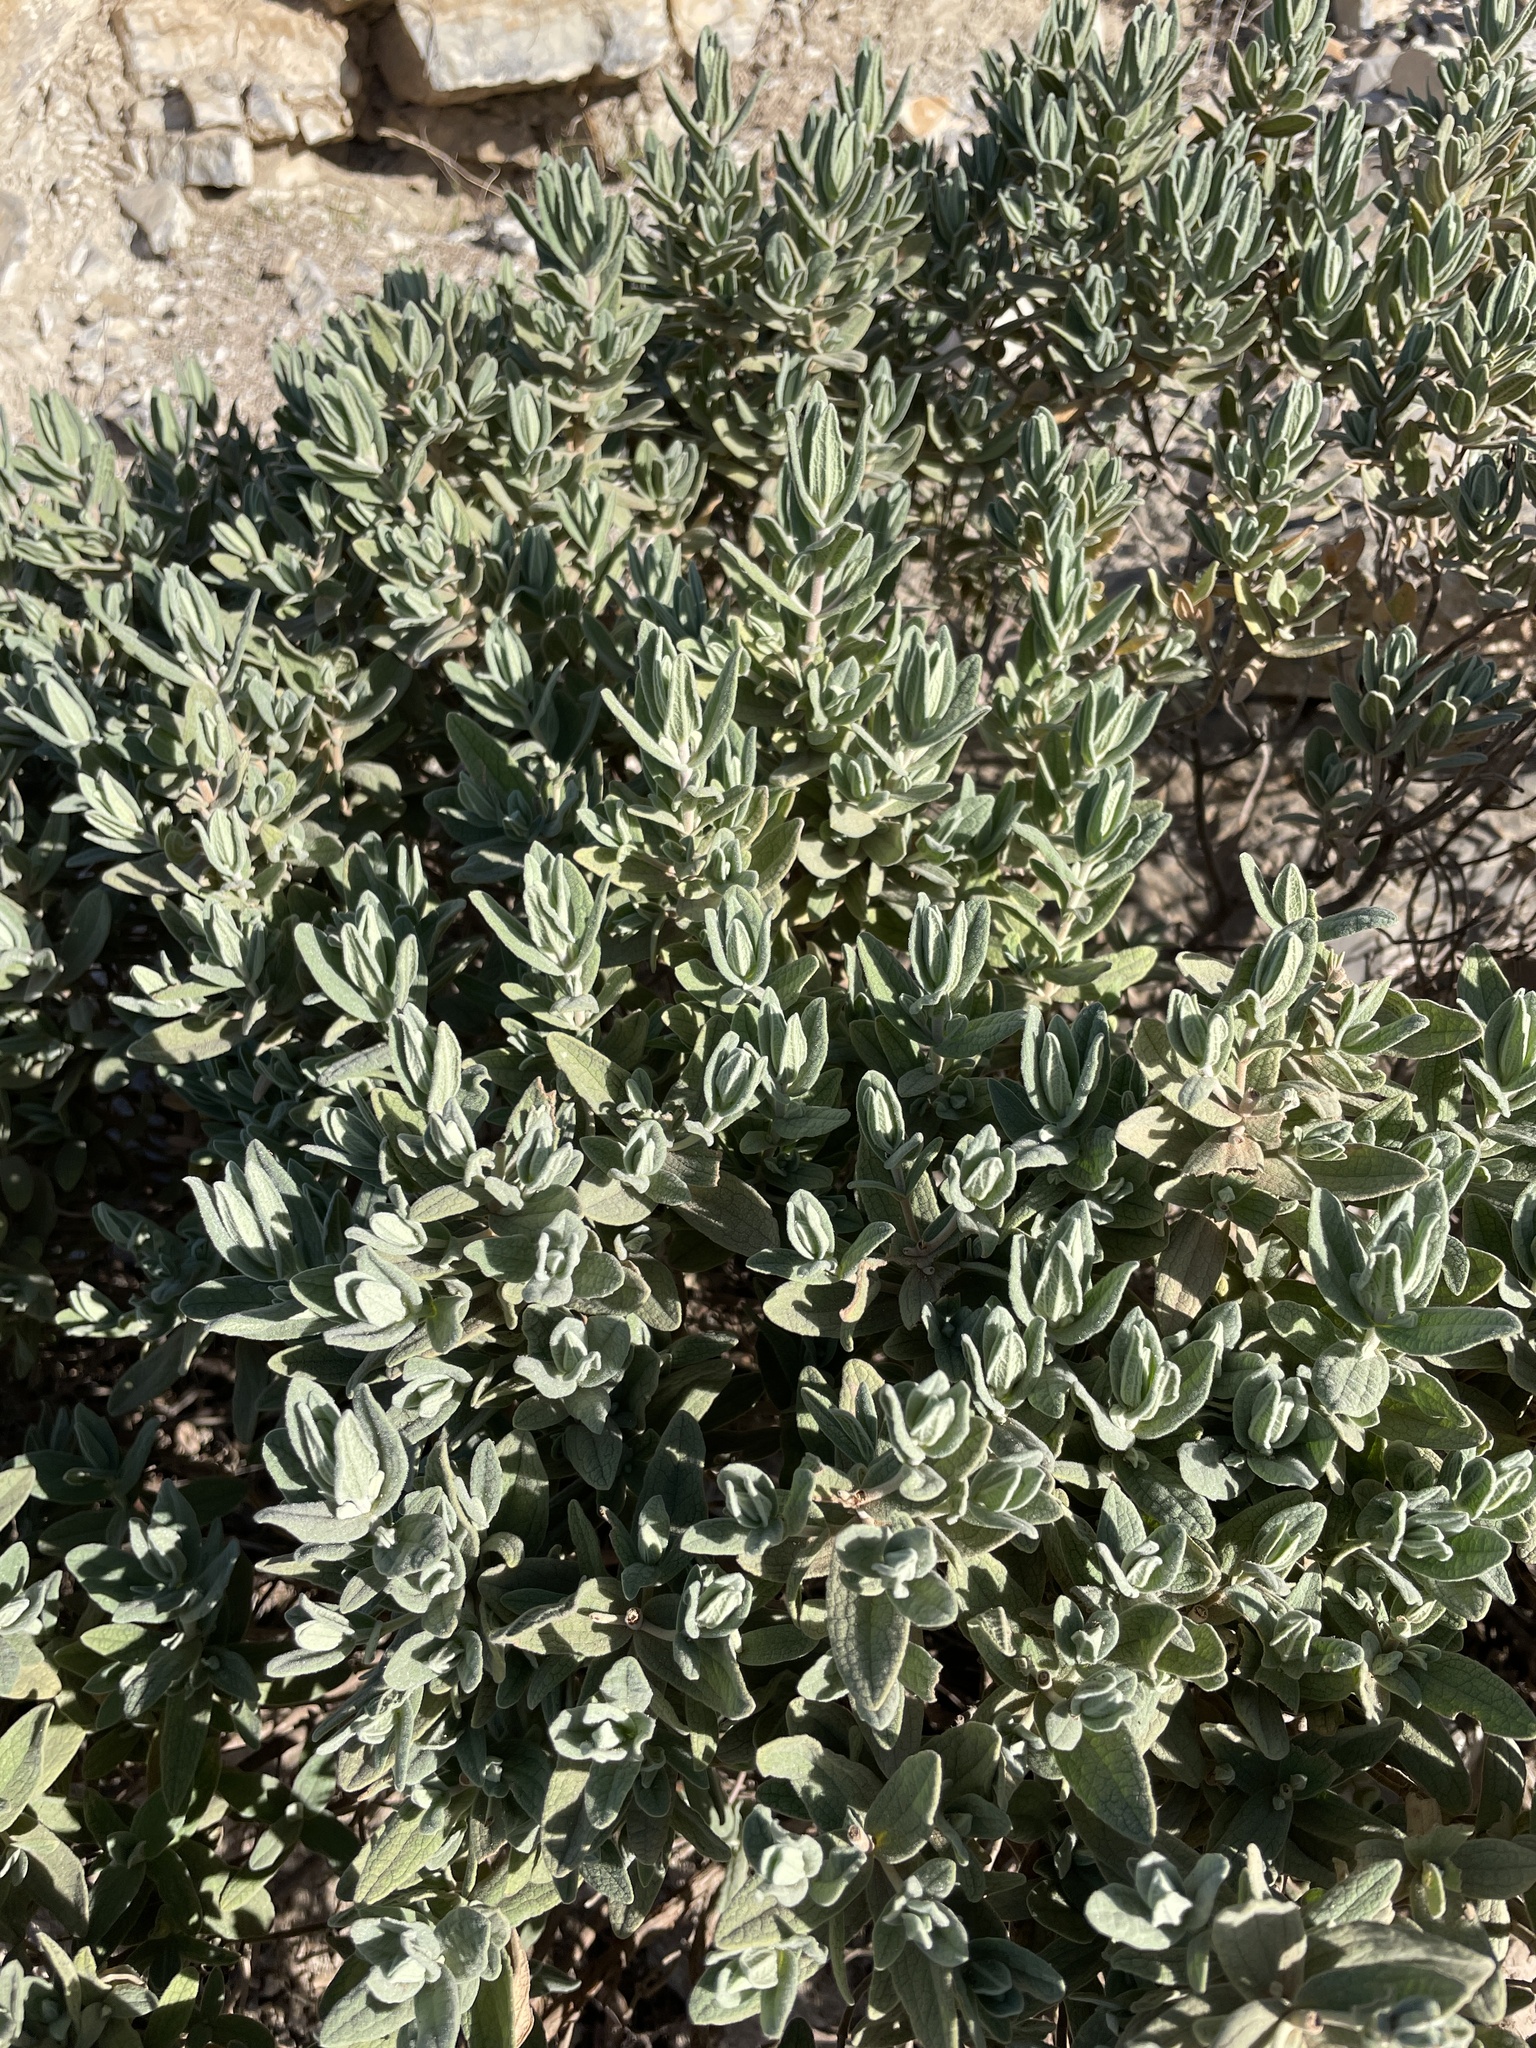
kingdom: Plantae
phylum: Tracheophyta
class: Magnoliopsida
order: Malvales
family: Cistaceae
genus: Cistus
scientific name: Cistus albidus
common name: White-leaf rock-rose
